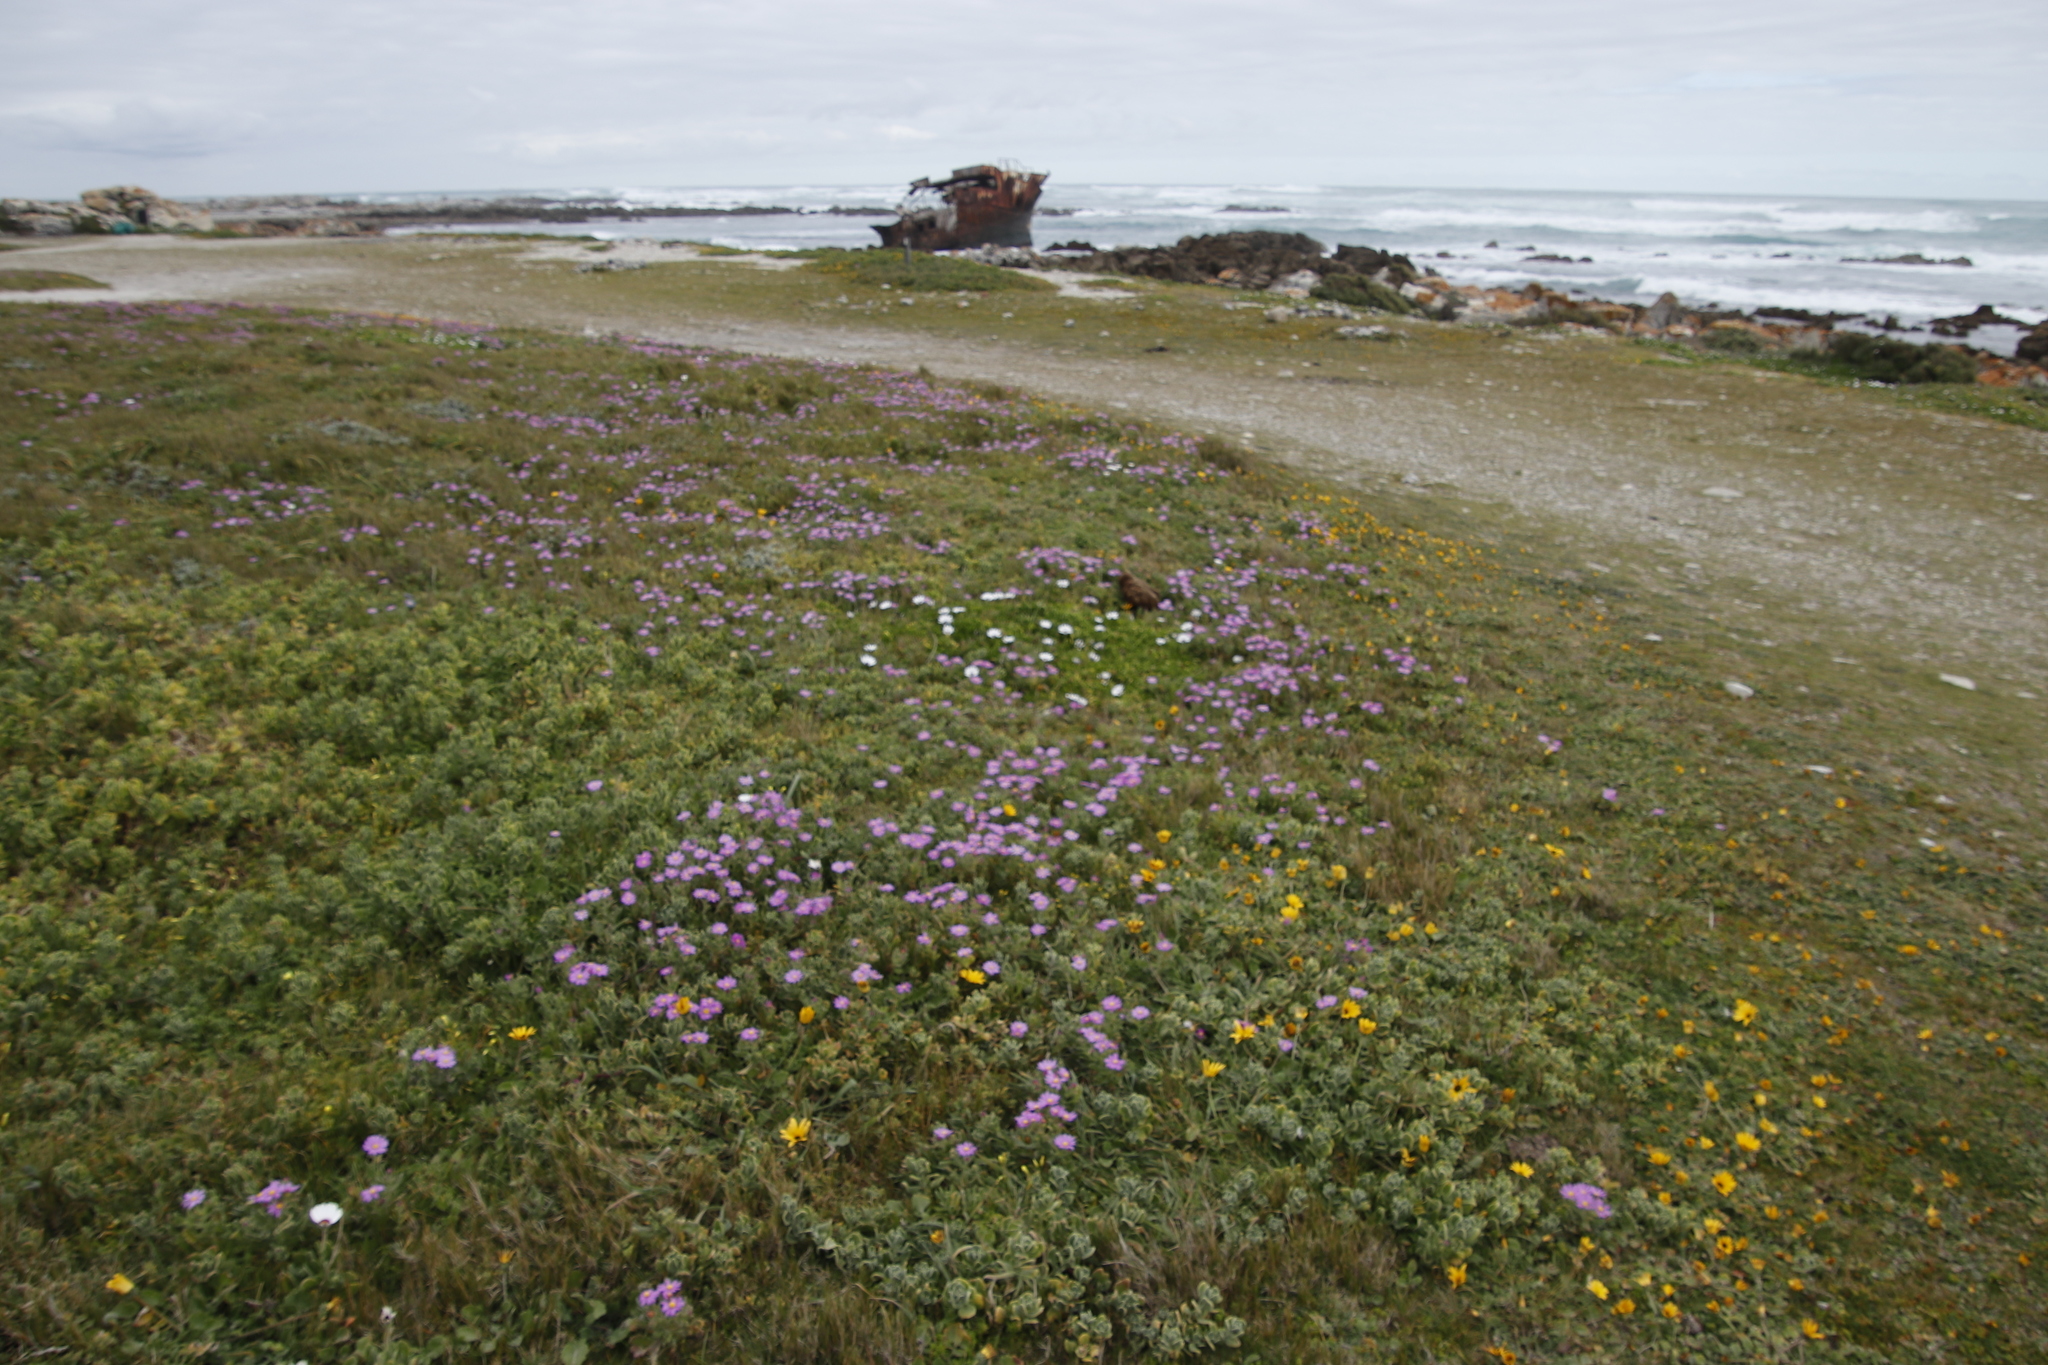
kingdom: Plantae
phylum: Tracheophyta
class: Magnoliopsida
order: Asterales
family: Asteraceae
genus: Senecio
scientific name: Senecio arenarius
